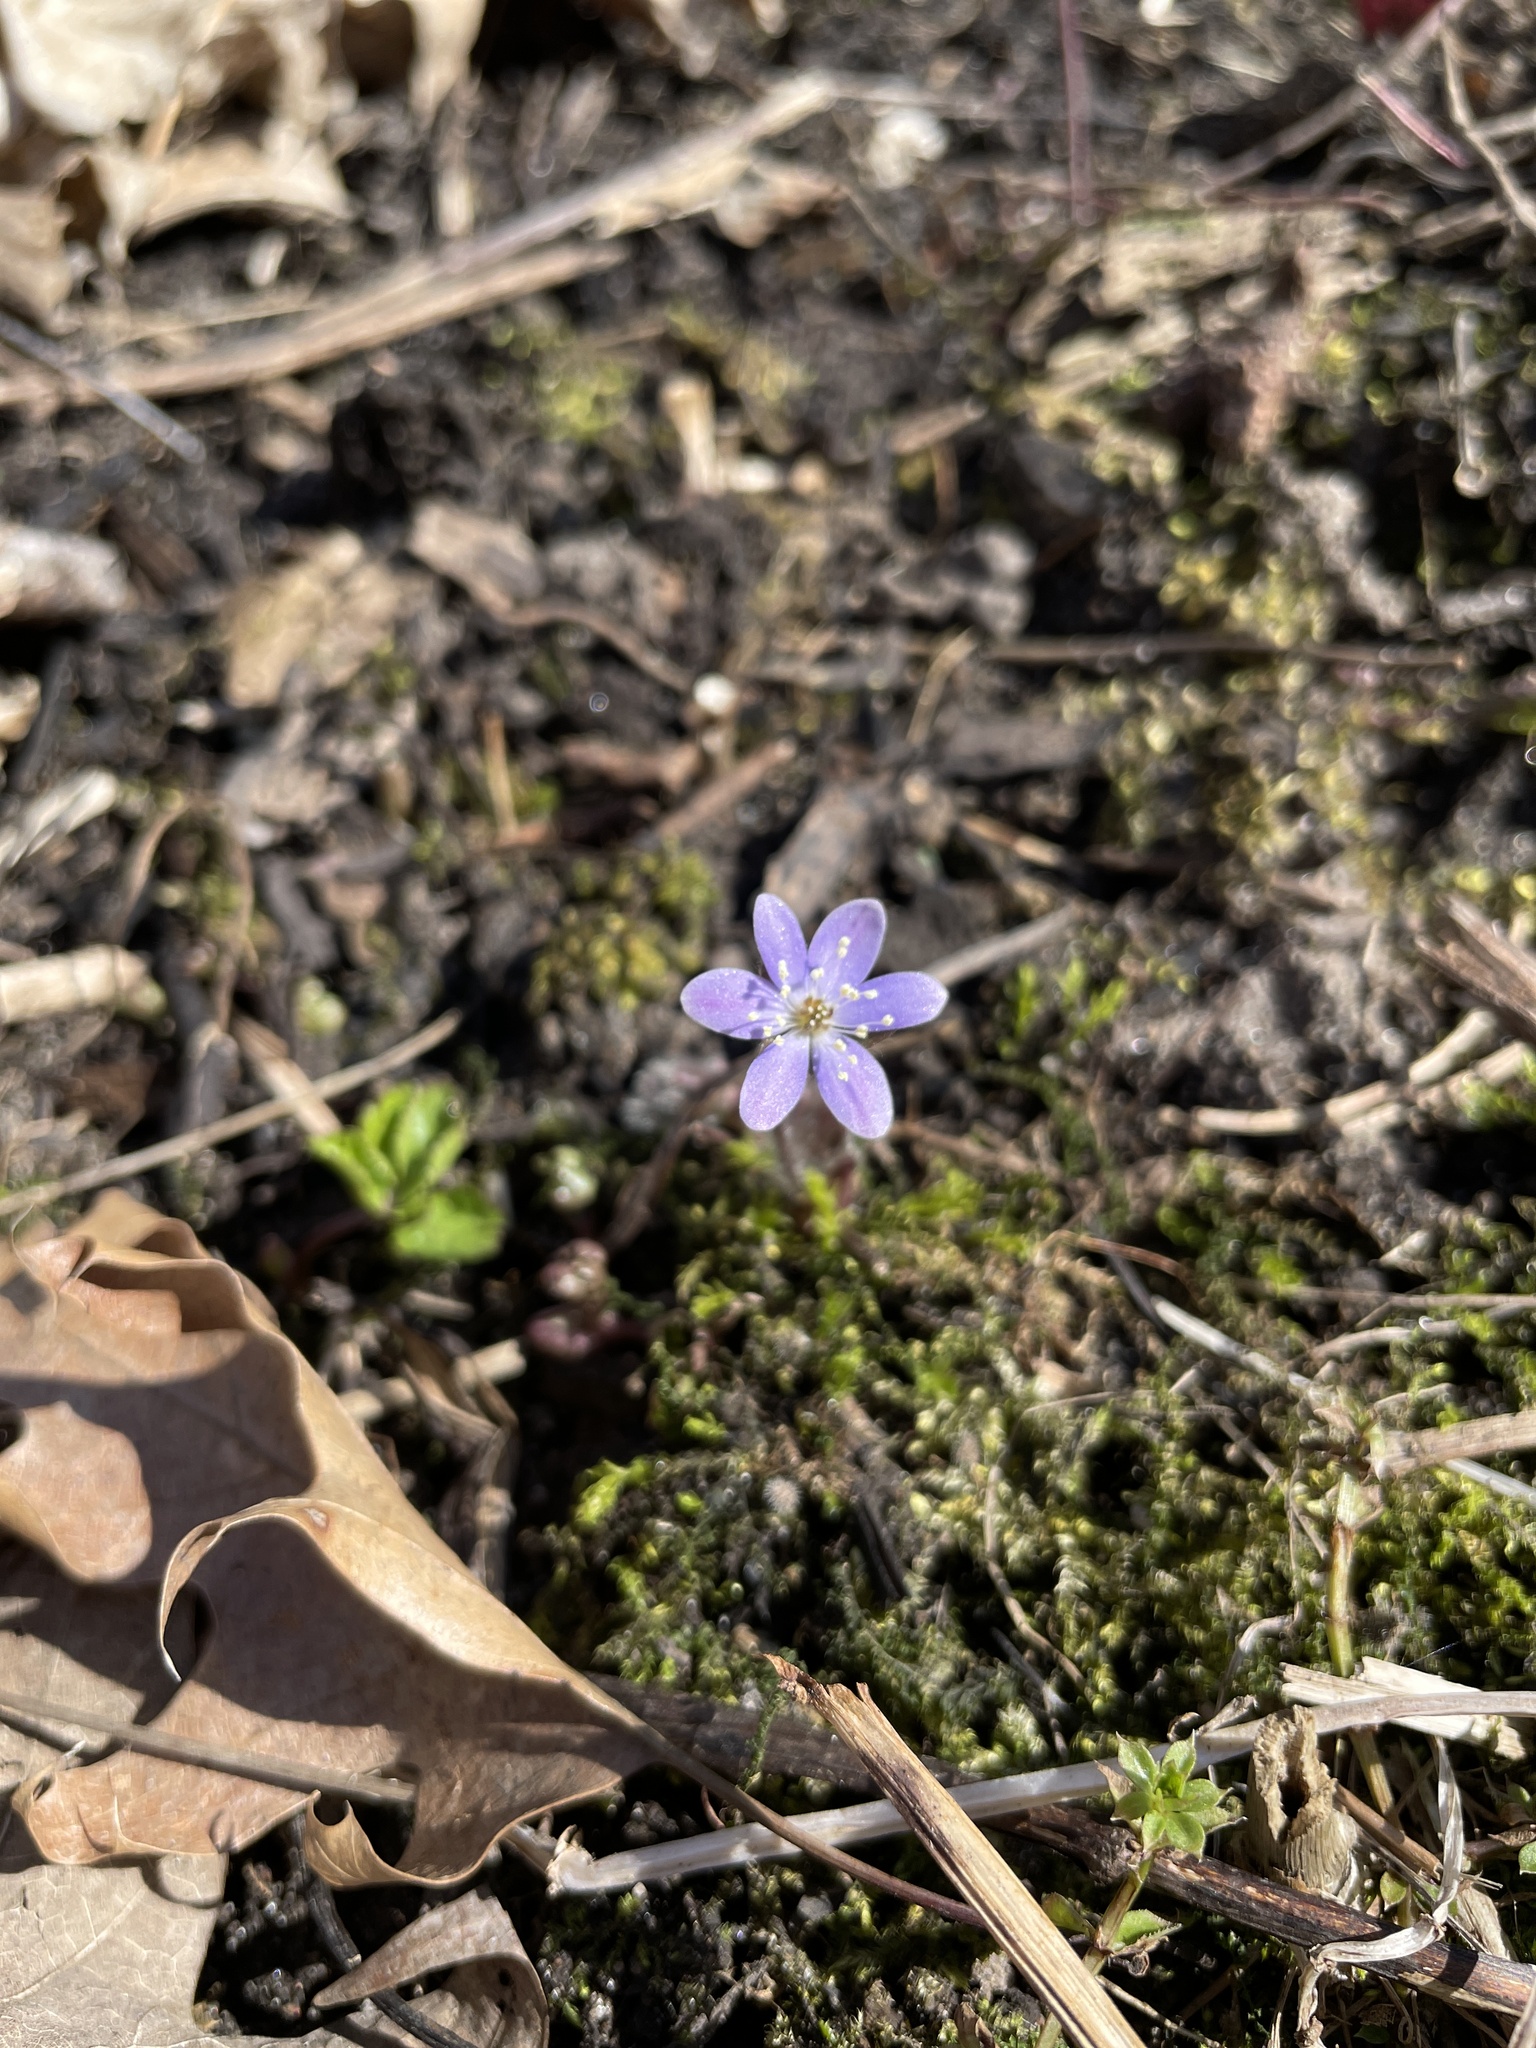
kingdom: Plantae
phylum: Tracheophyta
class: Magnoliopsida
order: Ranunculales
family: Ranunculaceae
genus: Hepatica
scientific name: Hepatica americana
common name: American hepatica
